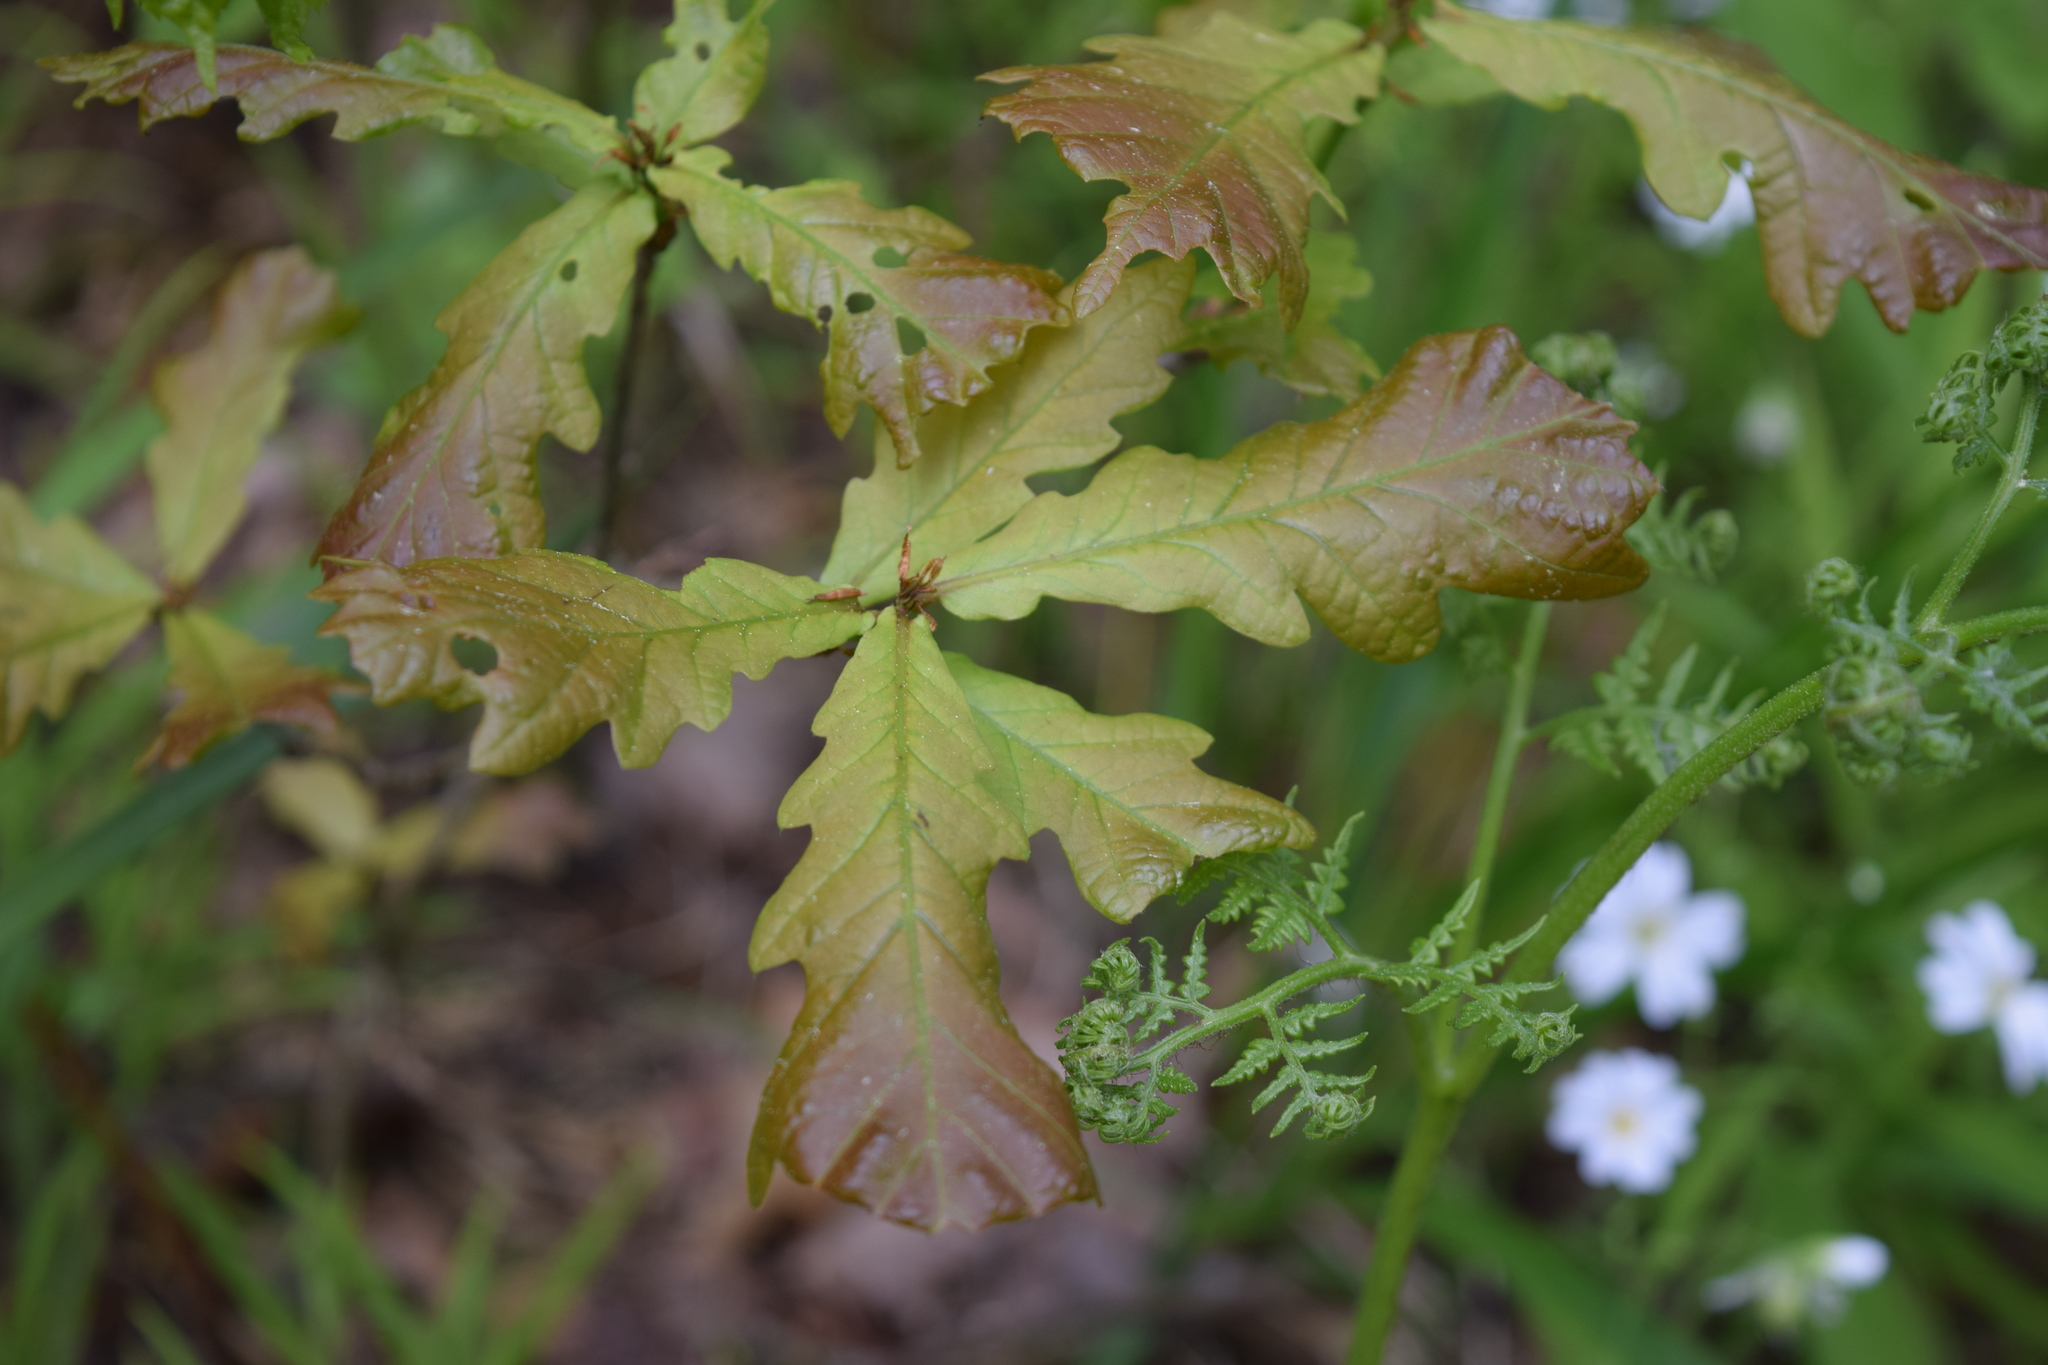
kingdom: Plantae
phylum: Tracheophyta
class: Magnoliopsida
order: Fagales
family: Fagaceae
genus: Quercus
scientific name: Quercus robur
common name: Pedunculate oak
